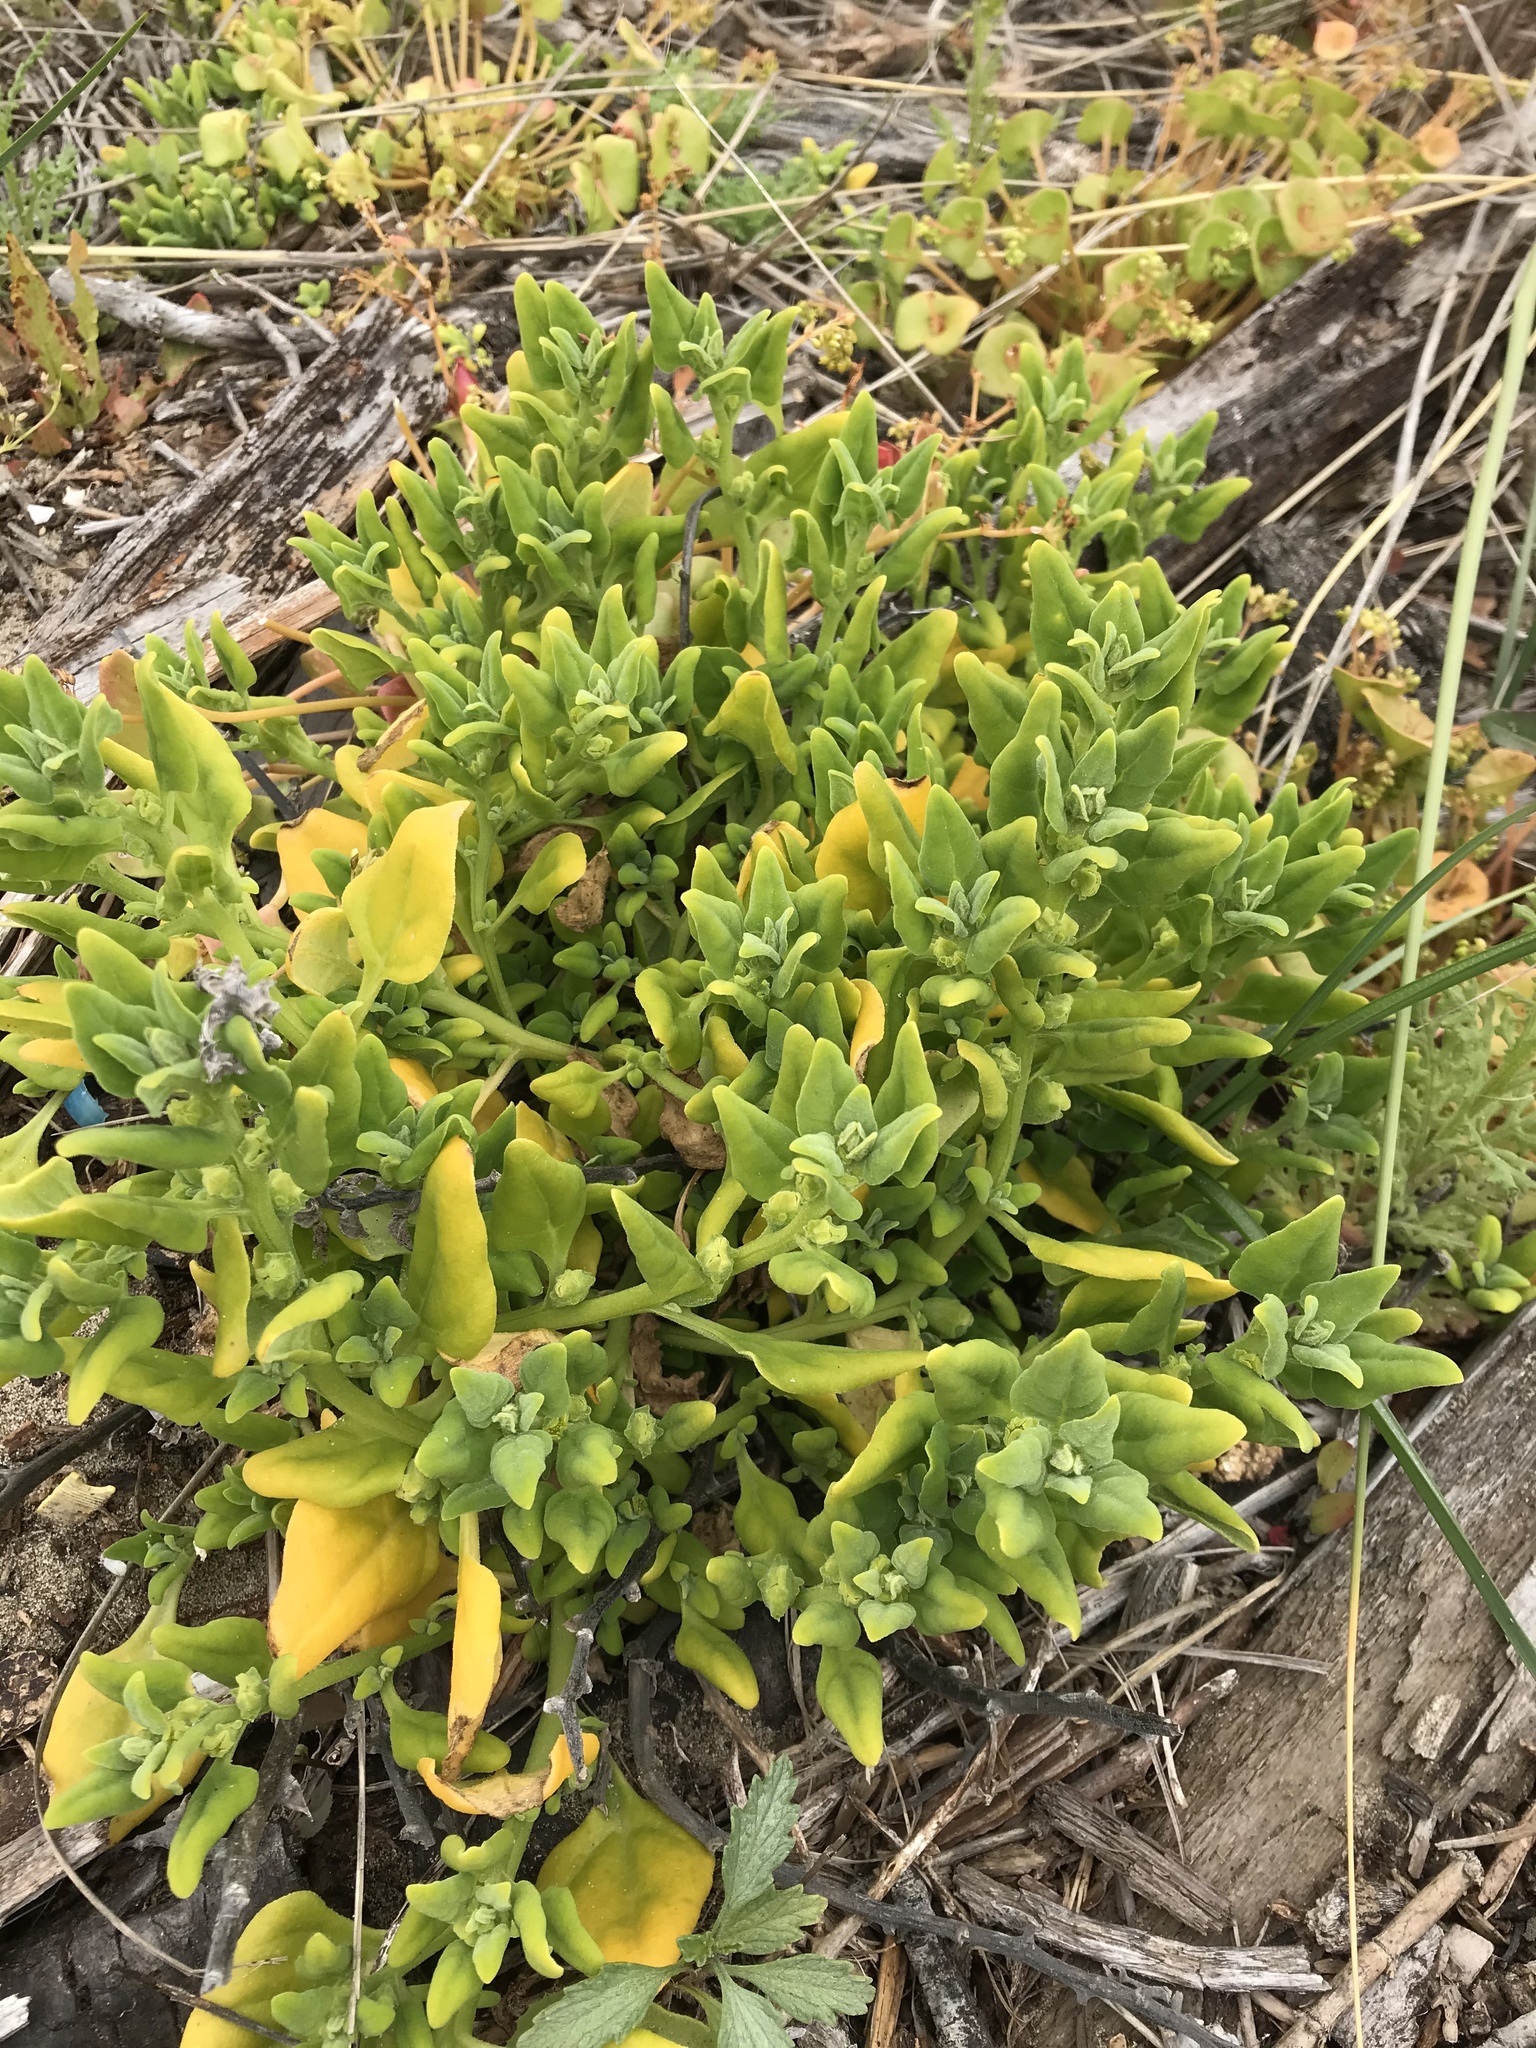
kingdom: Plantae
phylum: Tracheophyta
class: Magnoliopsida
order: Caryophyllales
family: Aizoaceae
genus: Tetragonia
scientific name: Tetragonia tetragonoides
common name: New zealand-spinach
